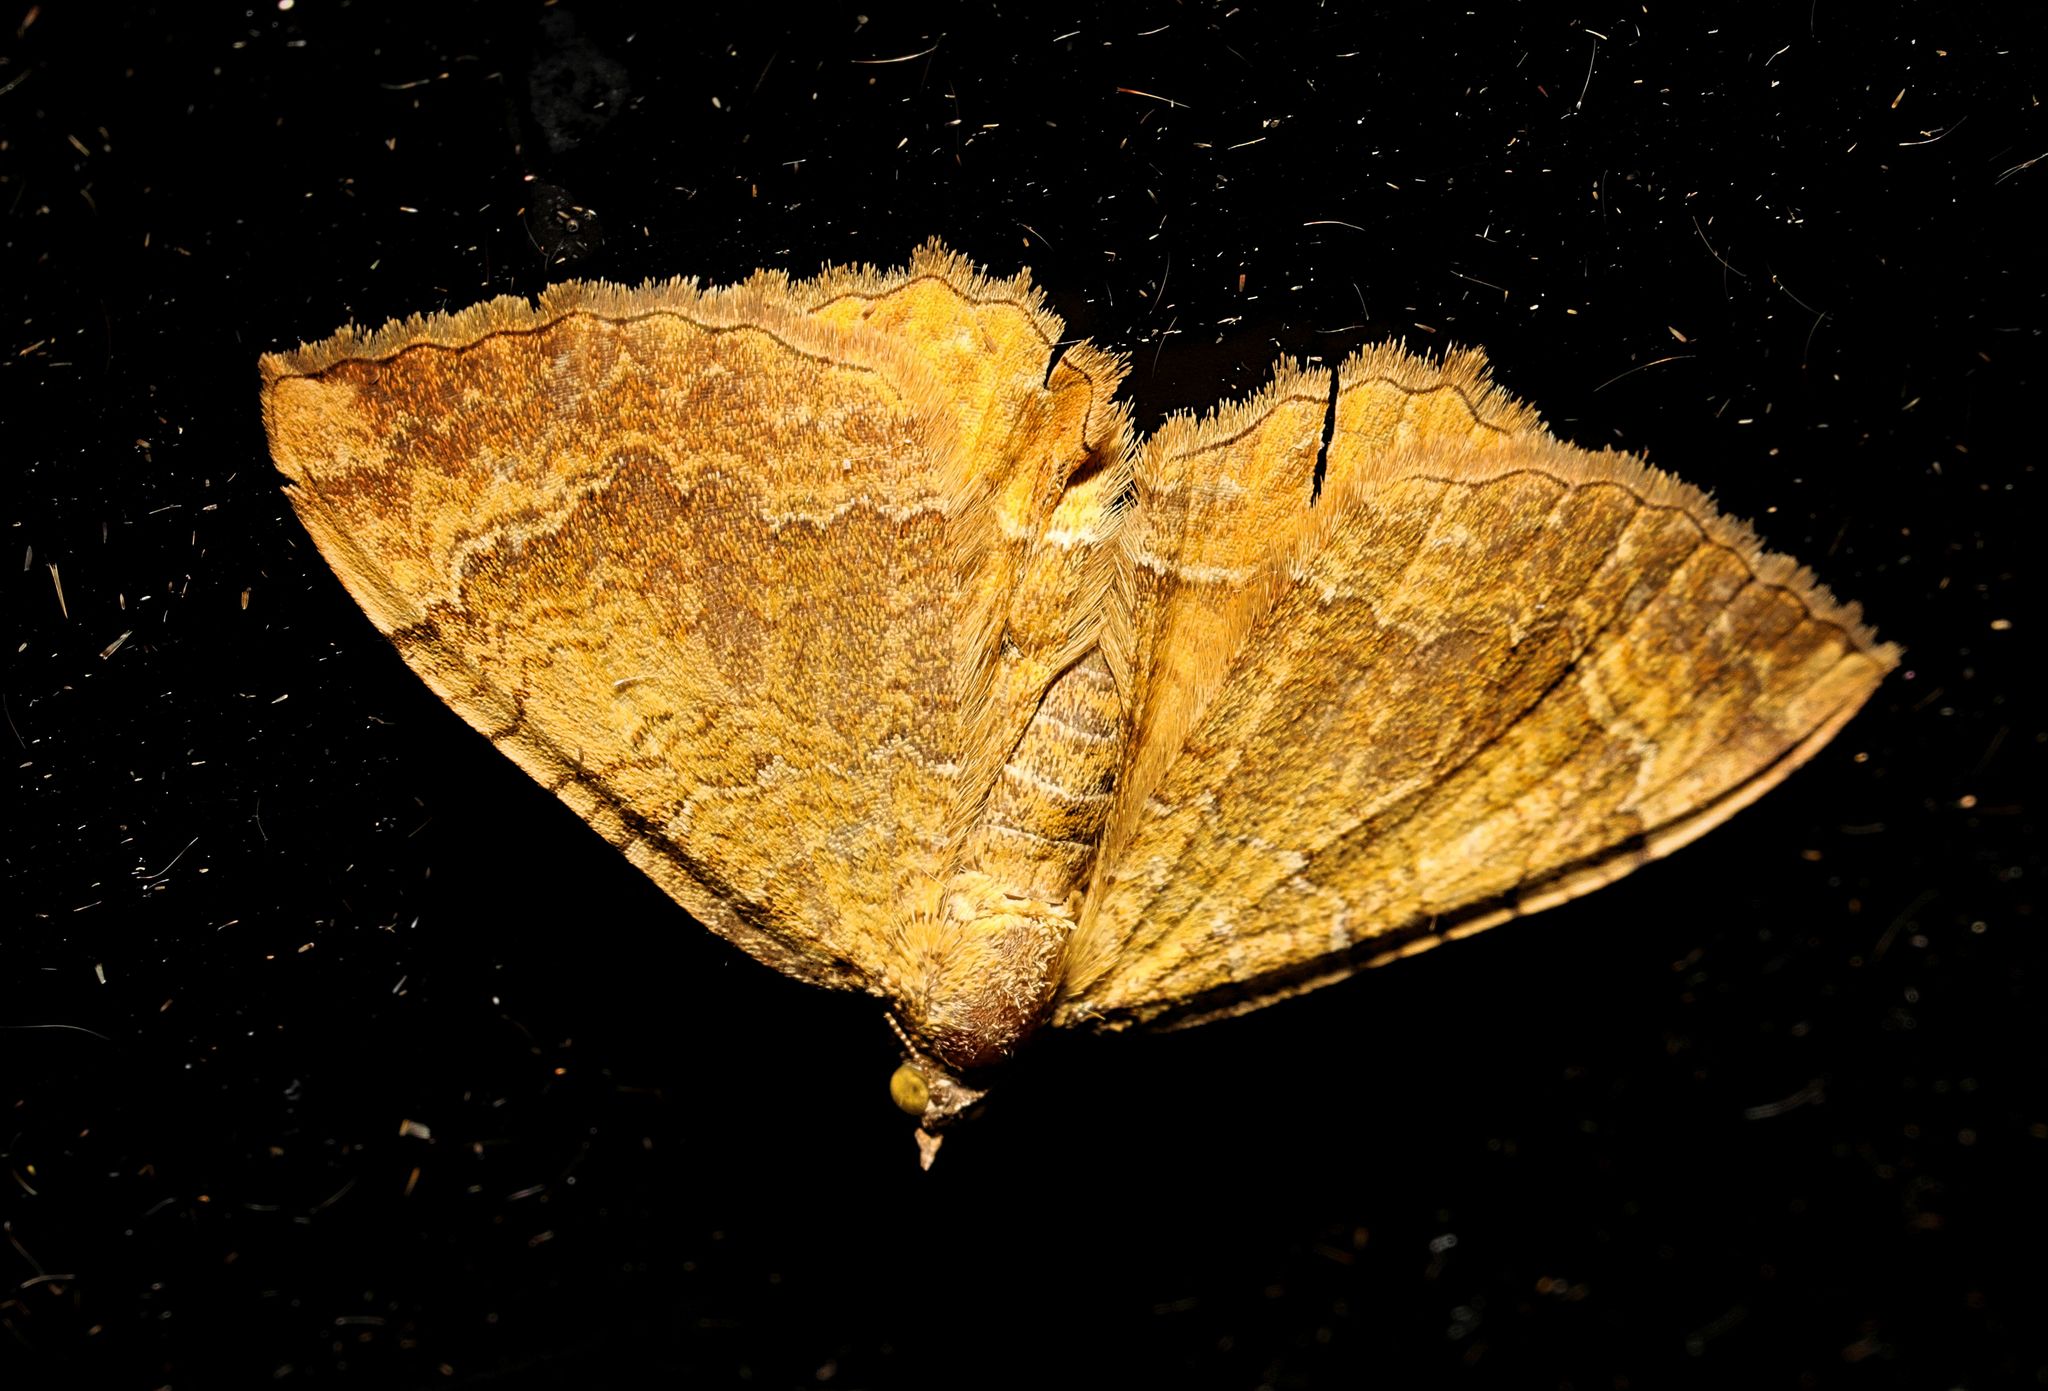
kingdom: Animalia
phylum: Arthropoda
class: Insecta
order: Lepidoptera
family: Geometridae
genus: Camptogramma
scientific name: Camptogramma bilineata
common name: Yellow shell
